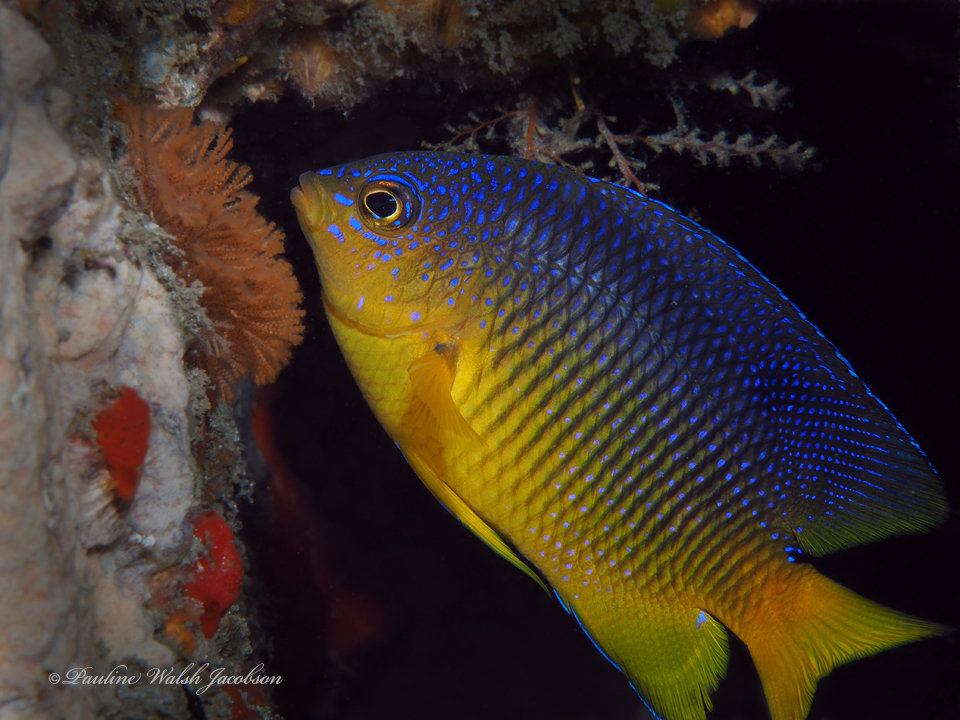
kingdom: Animalia
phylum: Chordata
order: Perciformes
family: Pomacentridae
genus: Stegastes
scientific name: Stegastes xanthurus
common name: Cocoa damselfish
